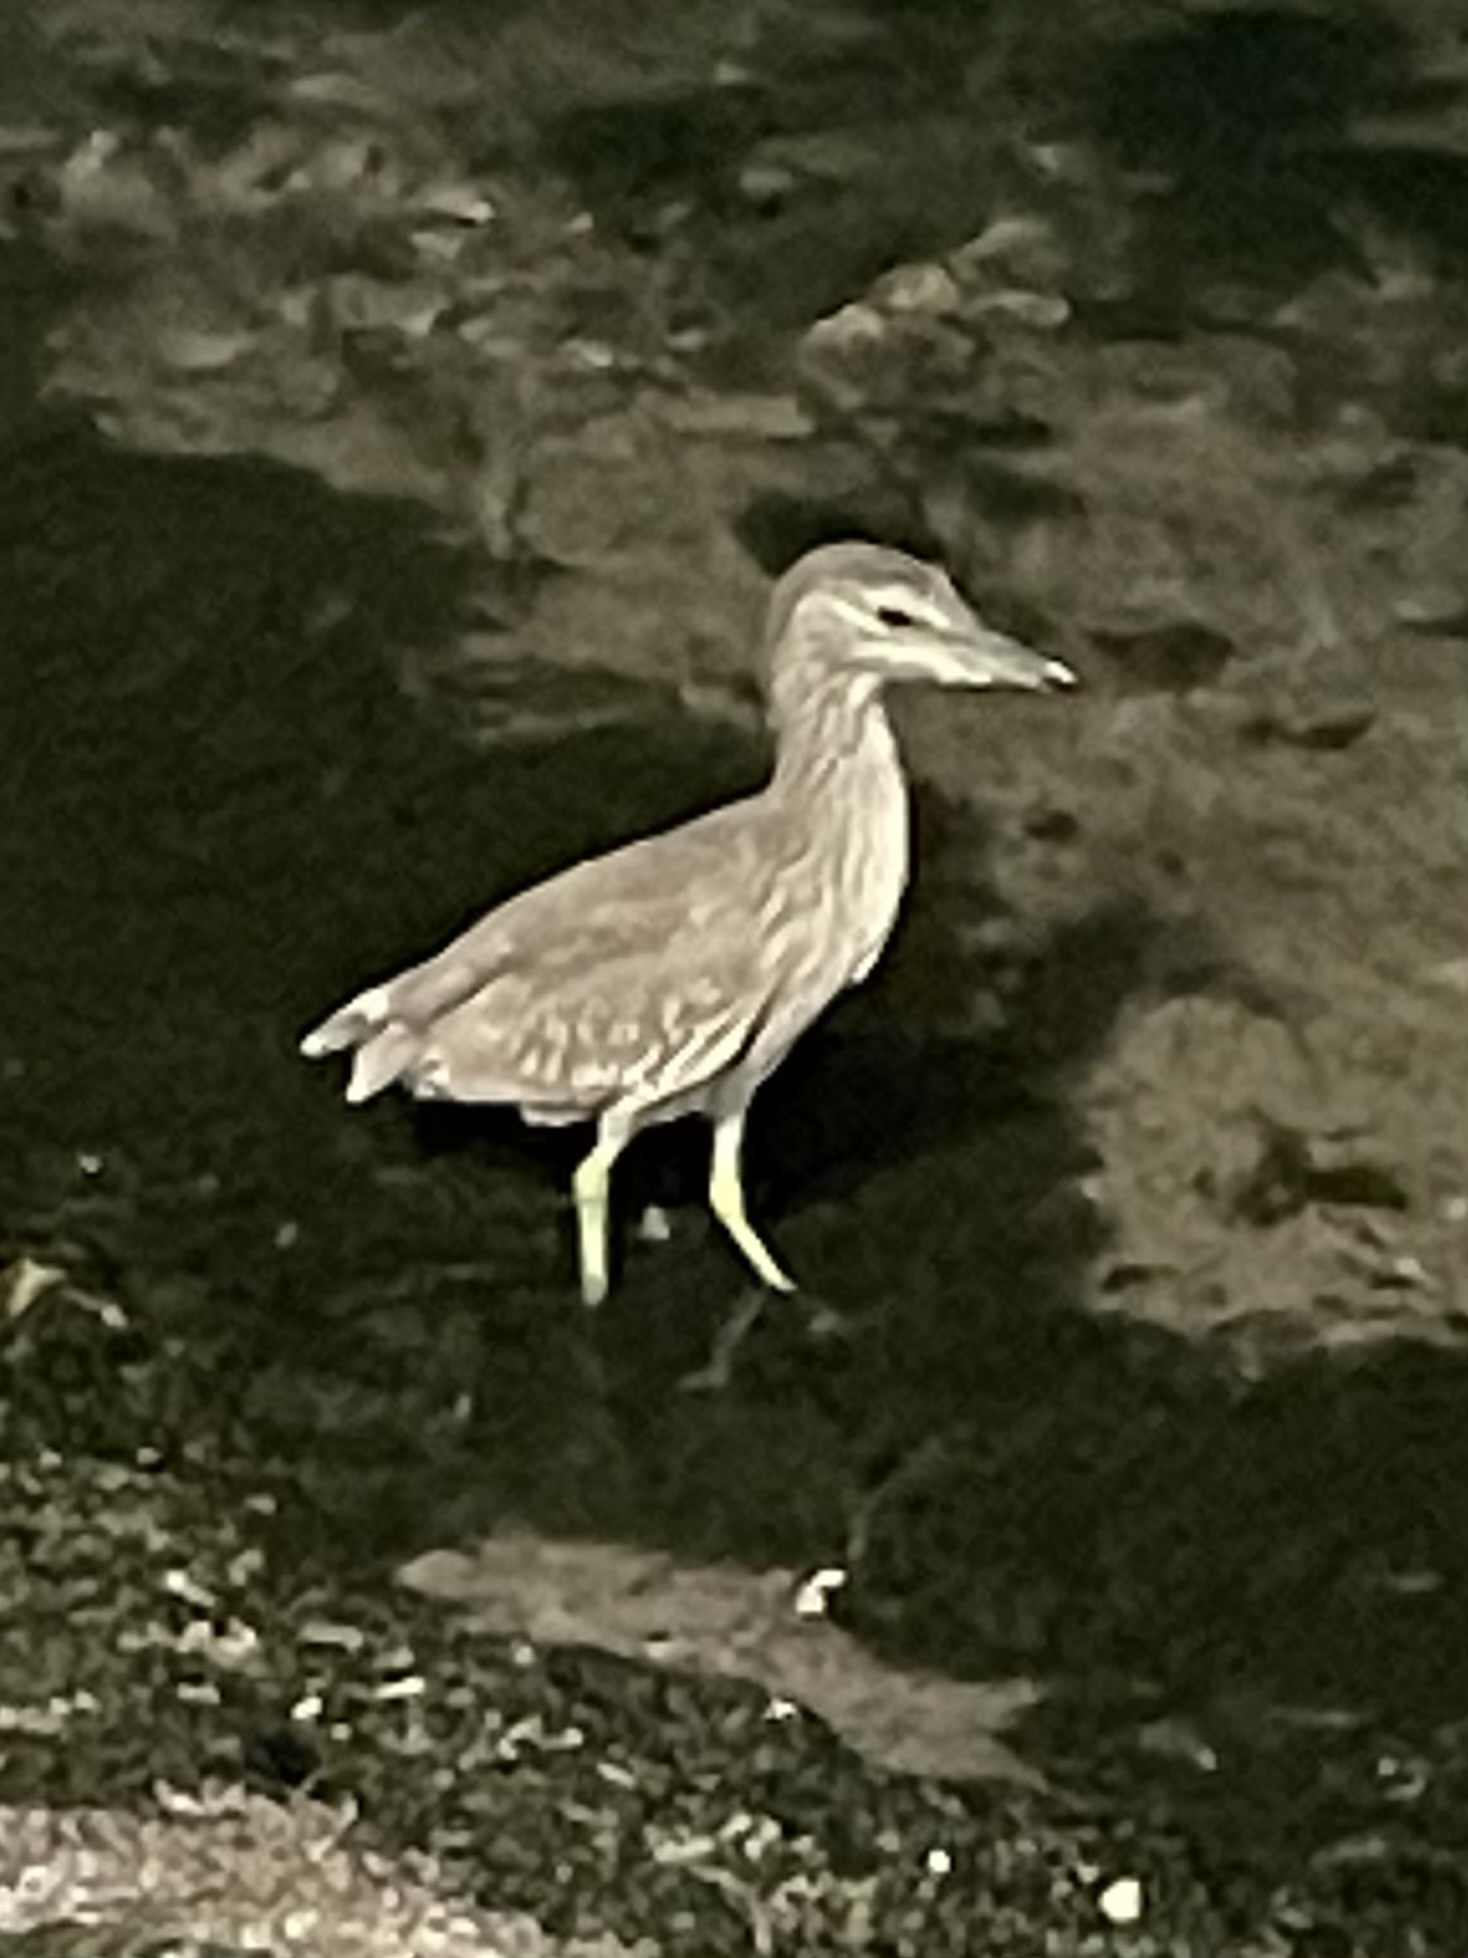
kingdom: Animalia
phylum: Chordata
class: Aves
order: Pelecaniformes
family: Ardeidae
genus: Nyctanassa
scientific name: Nyctanassa violacea
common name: Yellow-crowned night heron
